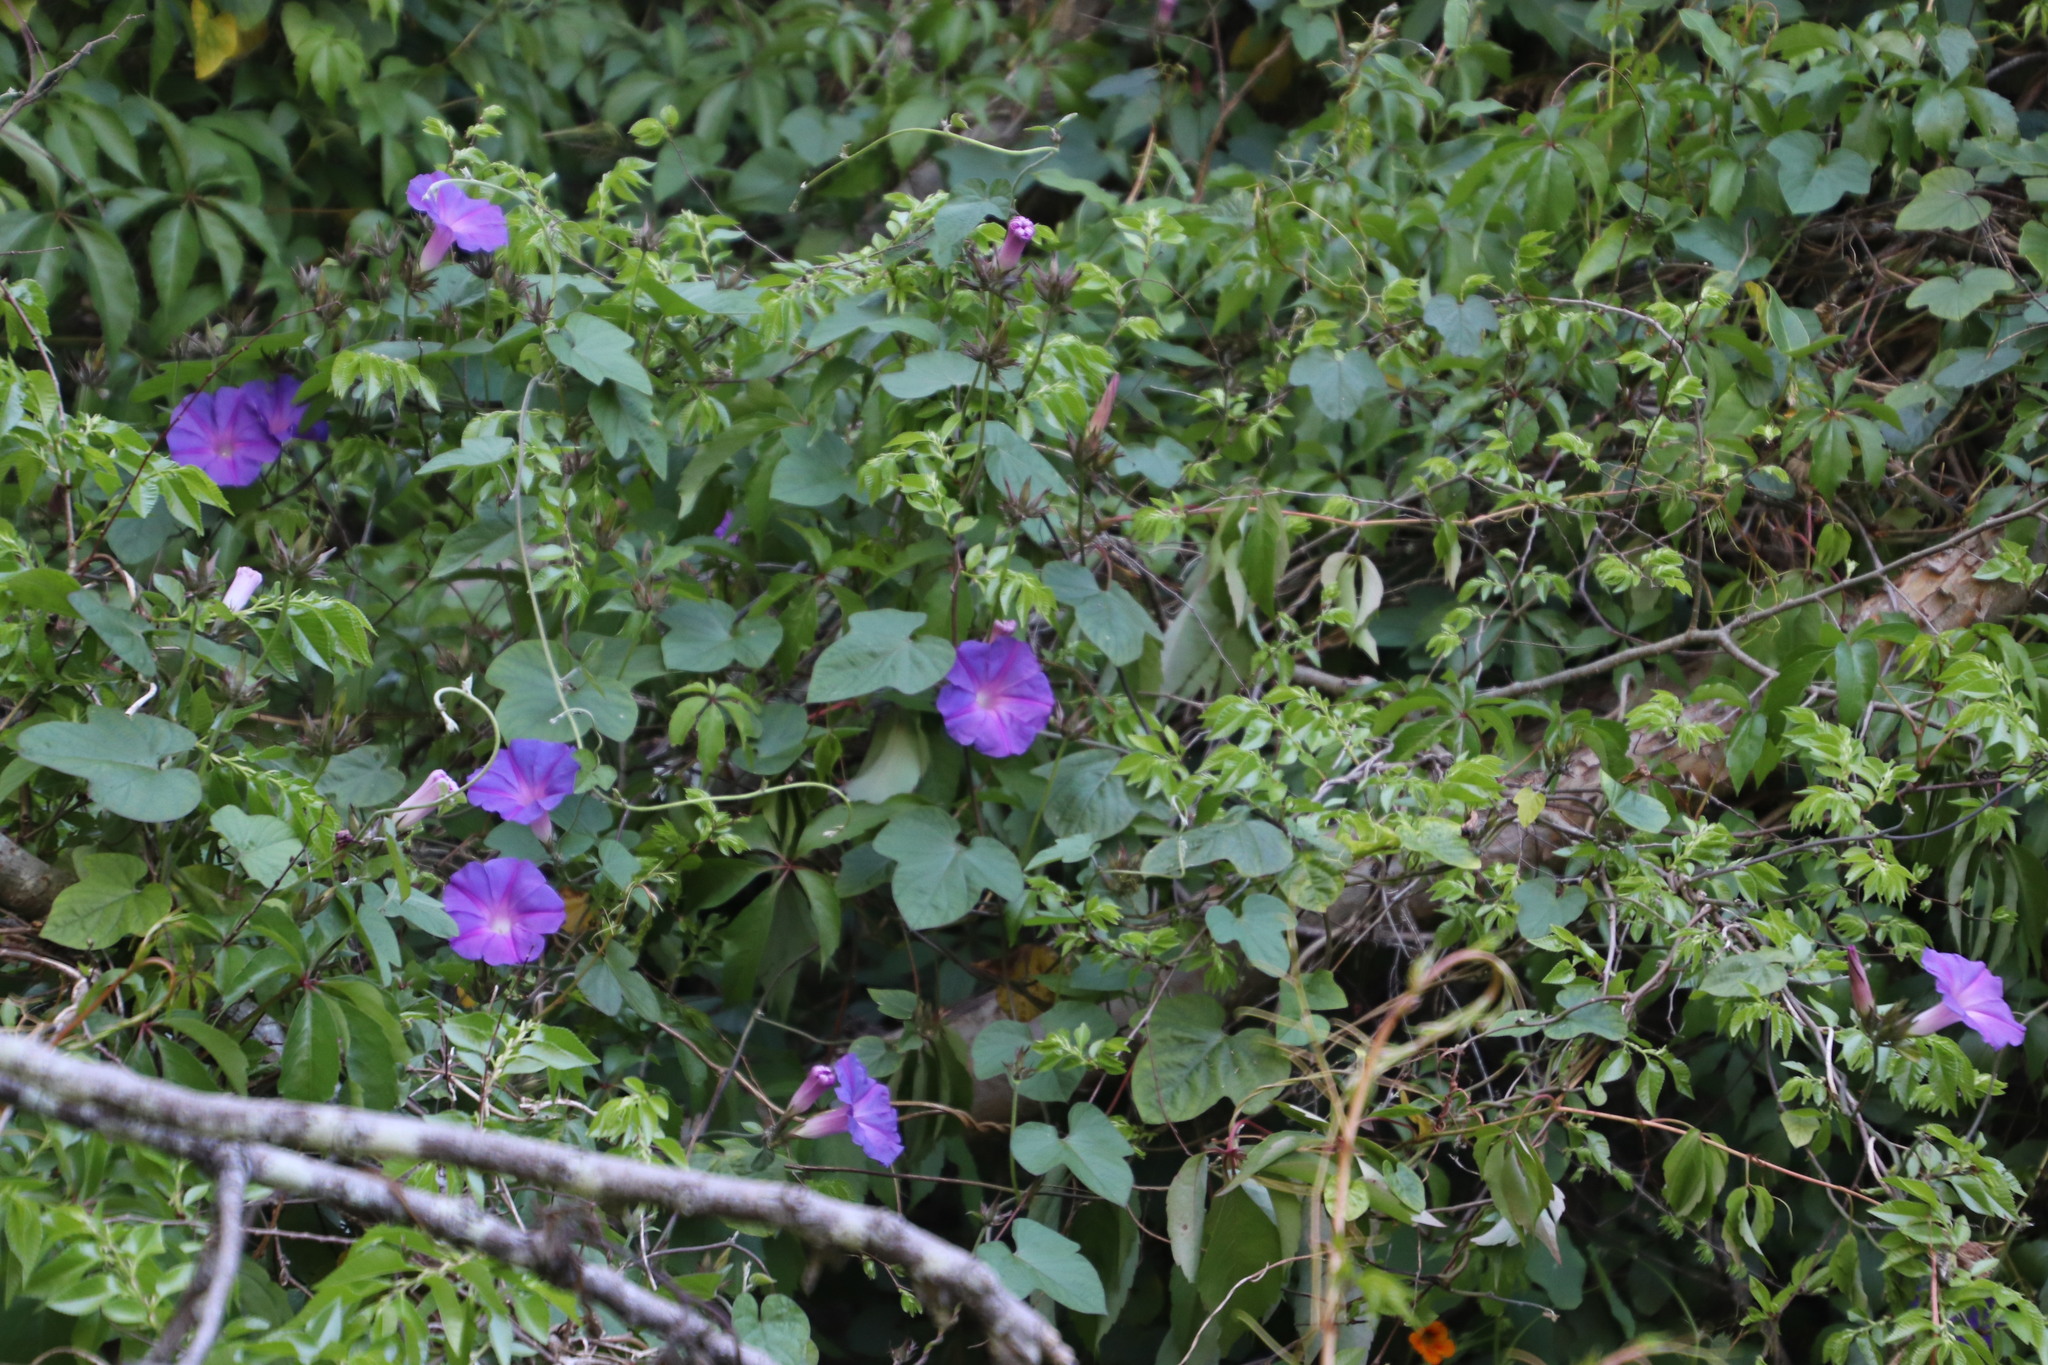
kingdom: Plantae
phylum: Tracheophyta
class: Magnoliopsida
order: Solanales
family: Convolvulaceae
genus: Ipomoea
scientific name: Ipomoea indica
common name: Blue dawnflower
